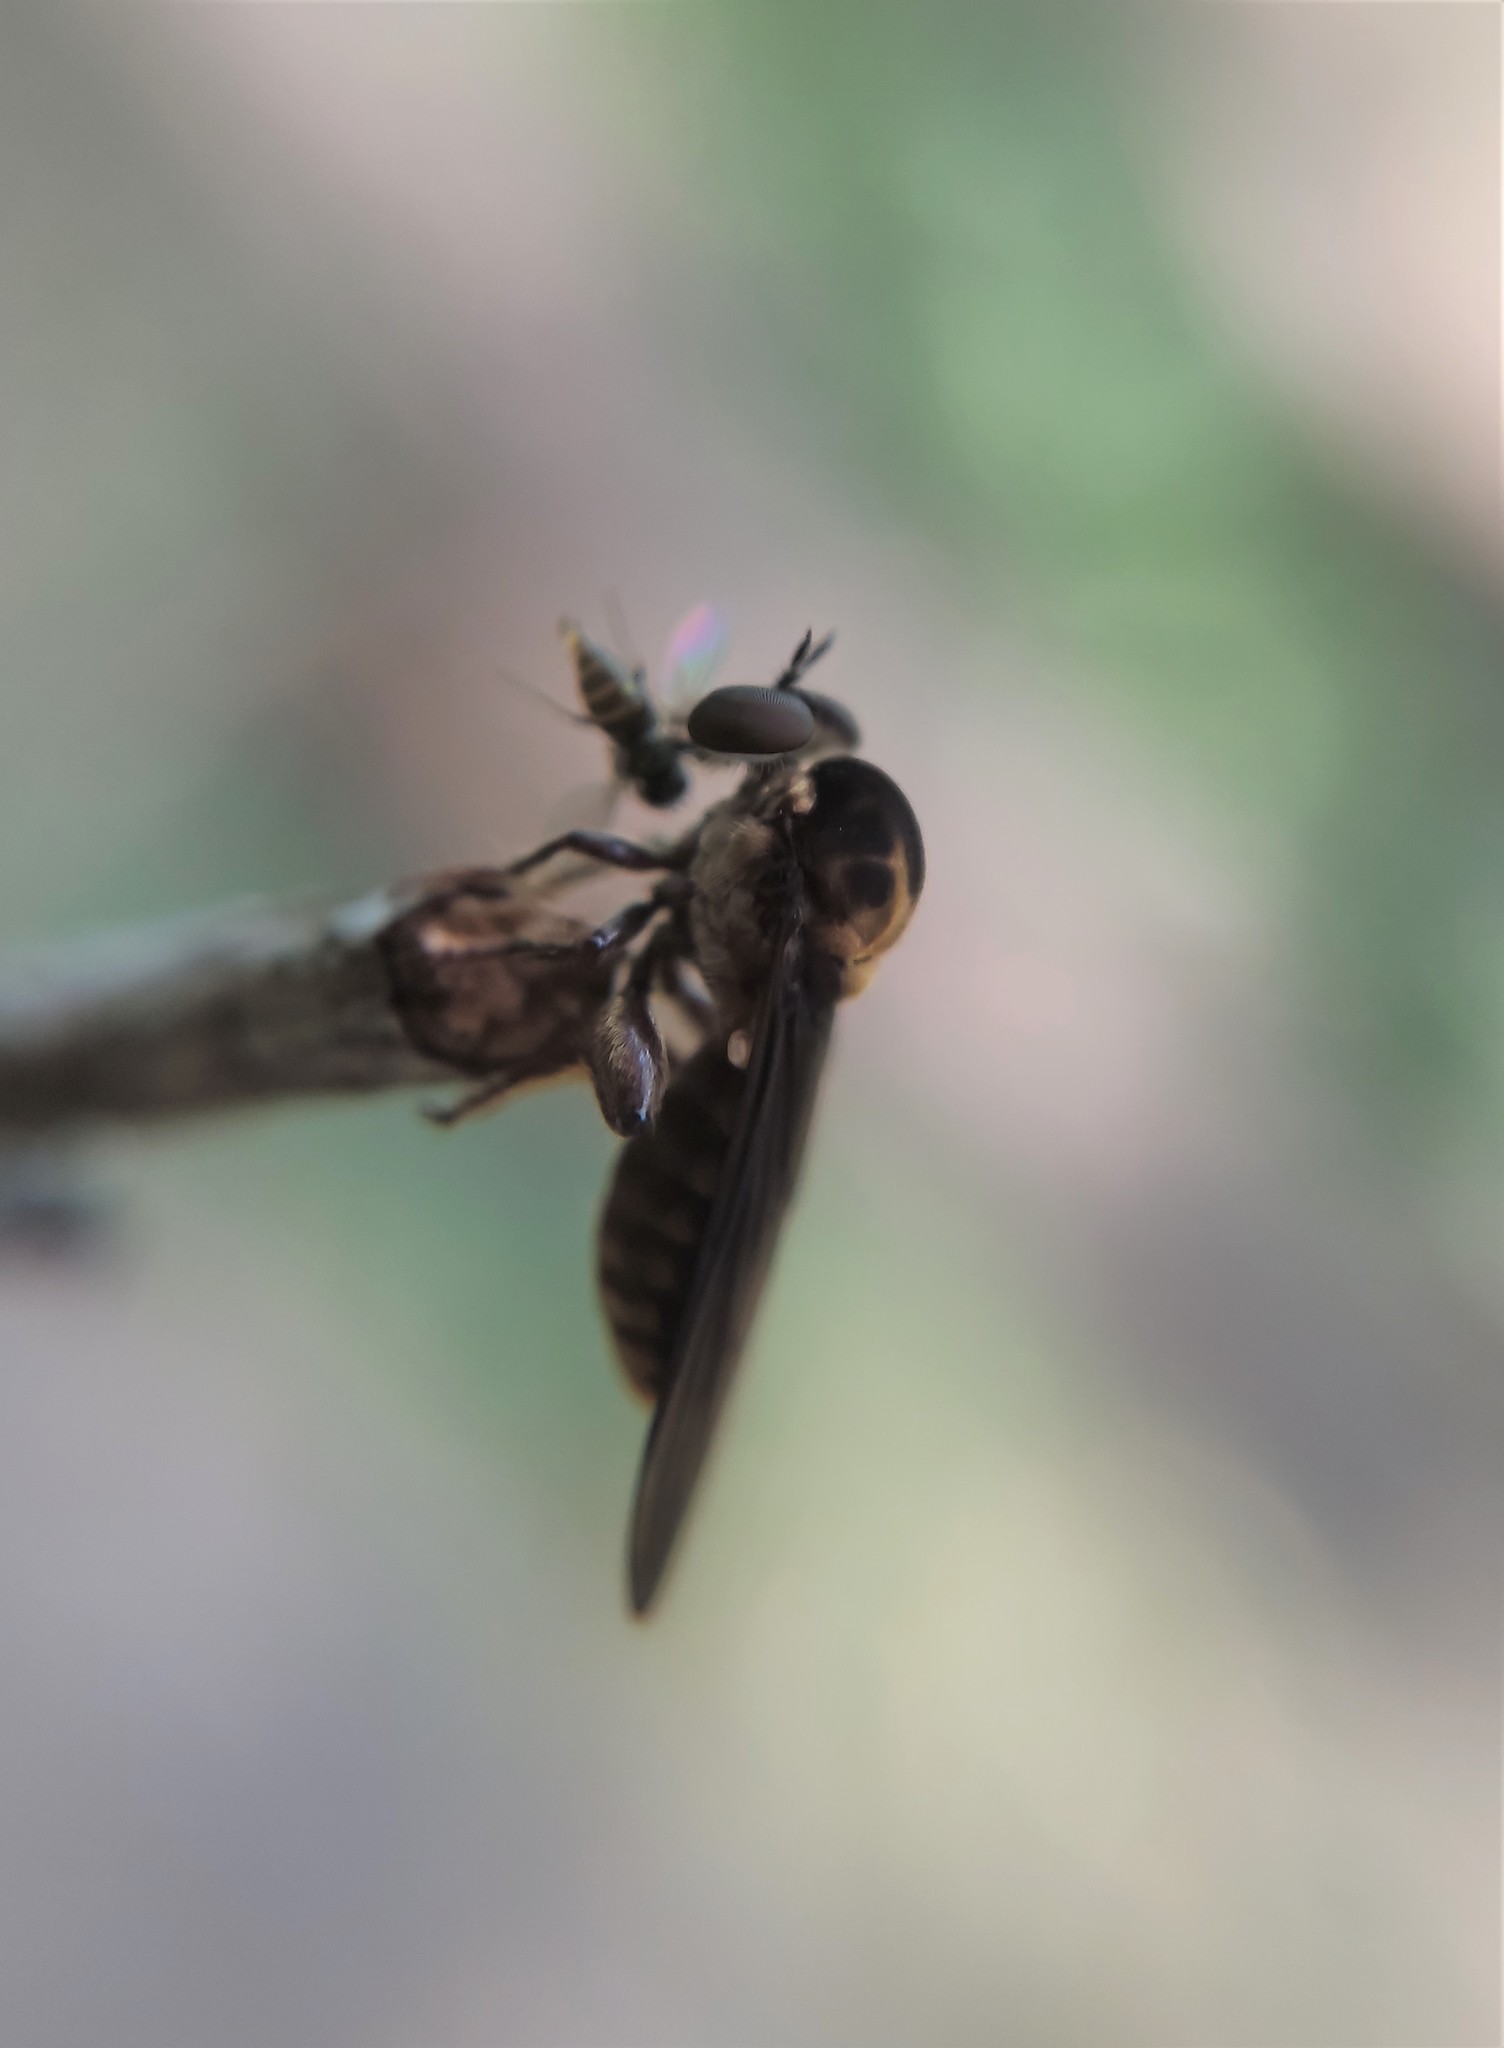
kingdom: Animalia
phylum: Arthropoda
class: Insecta
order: Diptera
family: Asilidae
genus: Holcocephala
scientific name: Holcocephala
